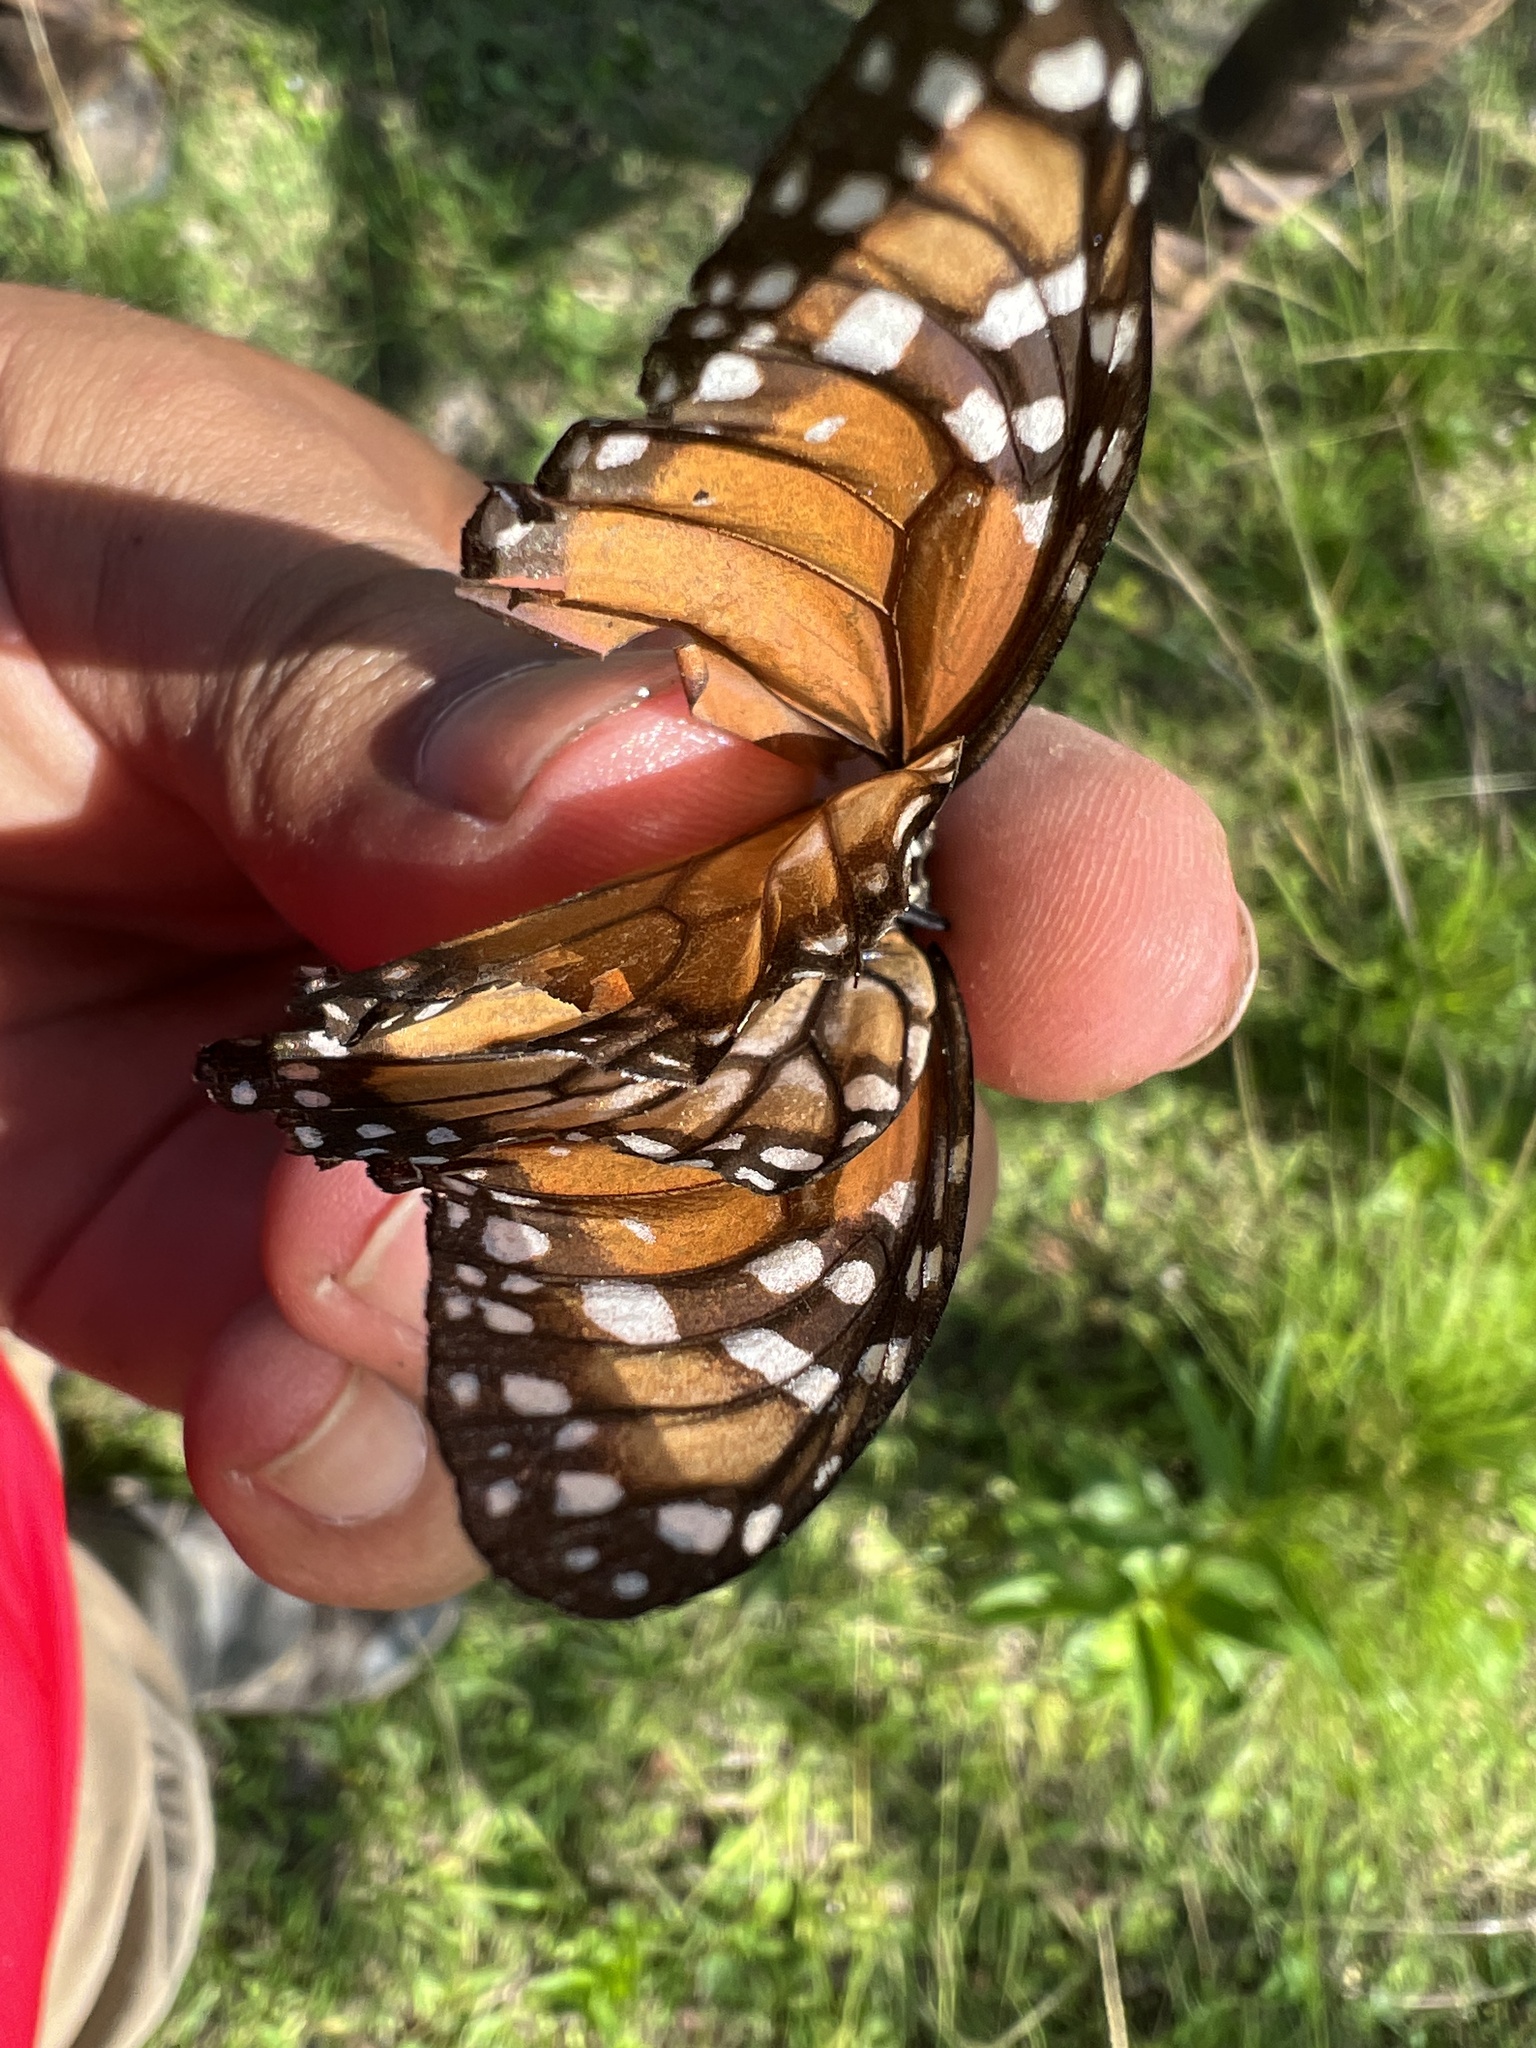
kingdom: Animalia
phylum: Arthropoda
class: Insecta
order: Lepidoptera
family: Nymphalidae
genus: Danaus
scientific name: Danaus erippus
